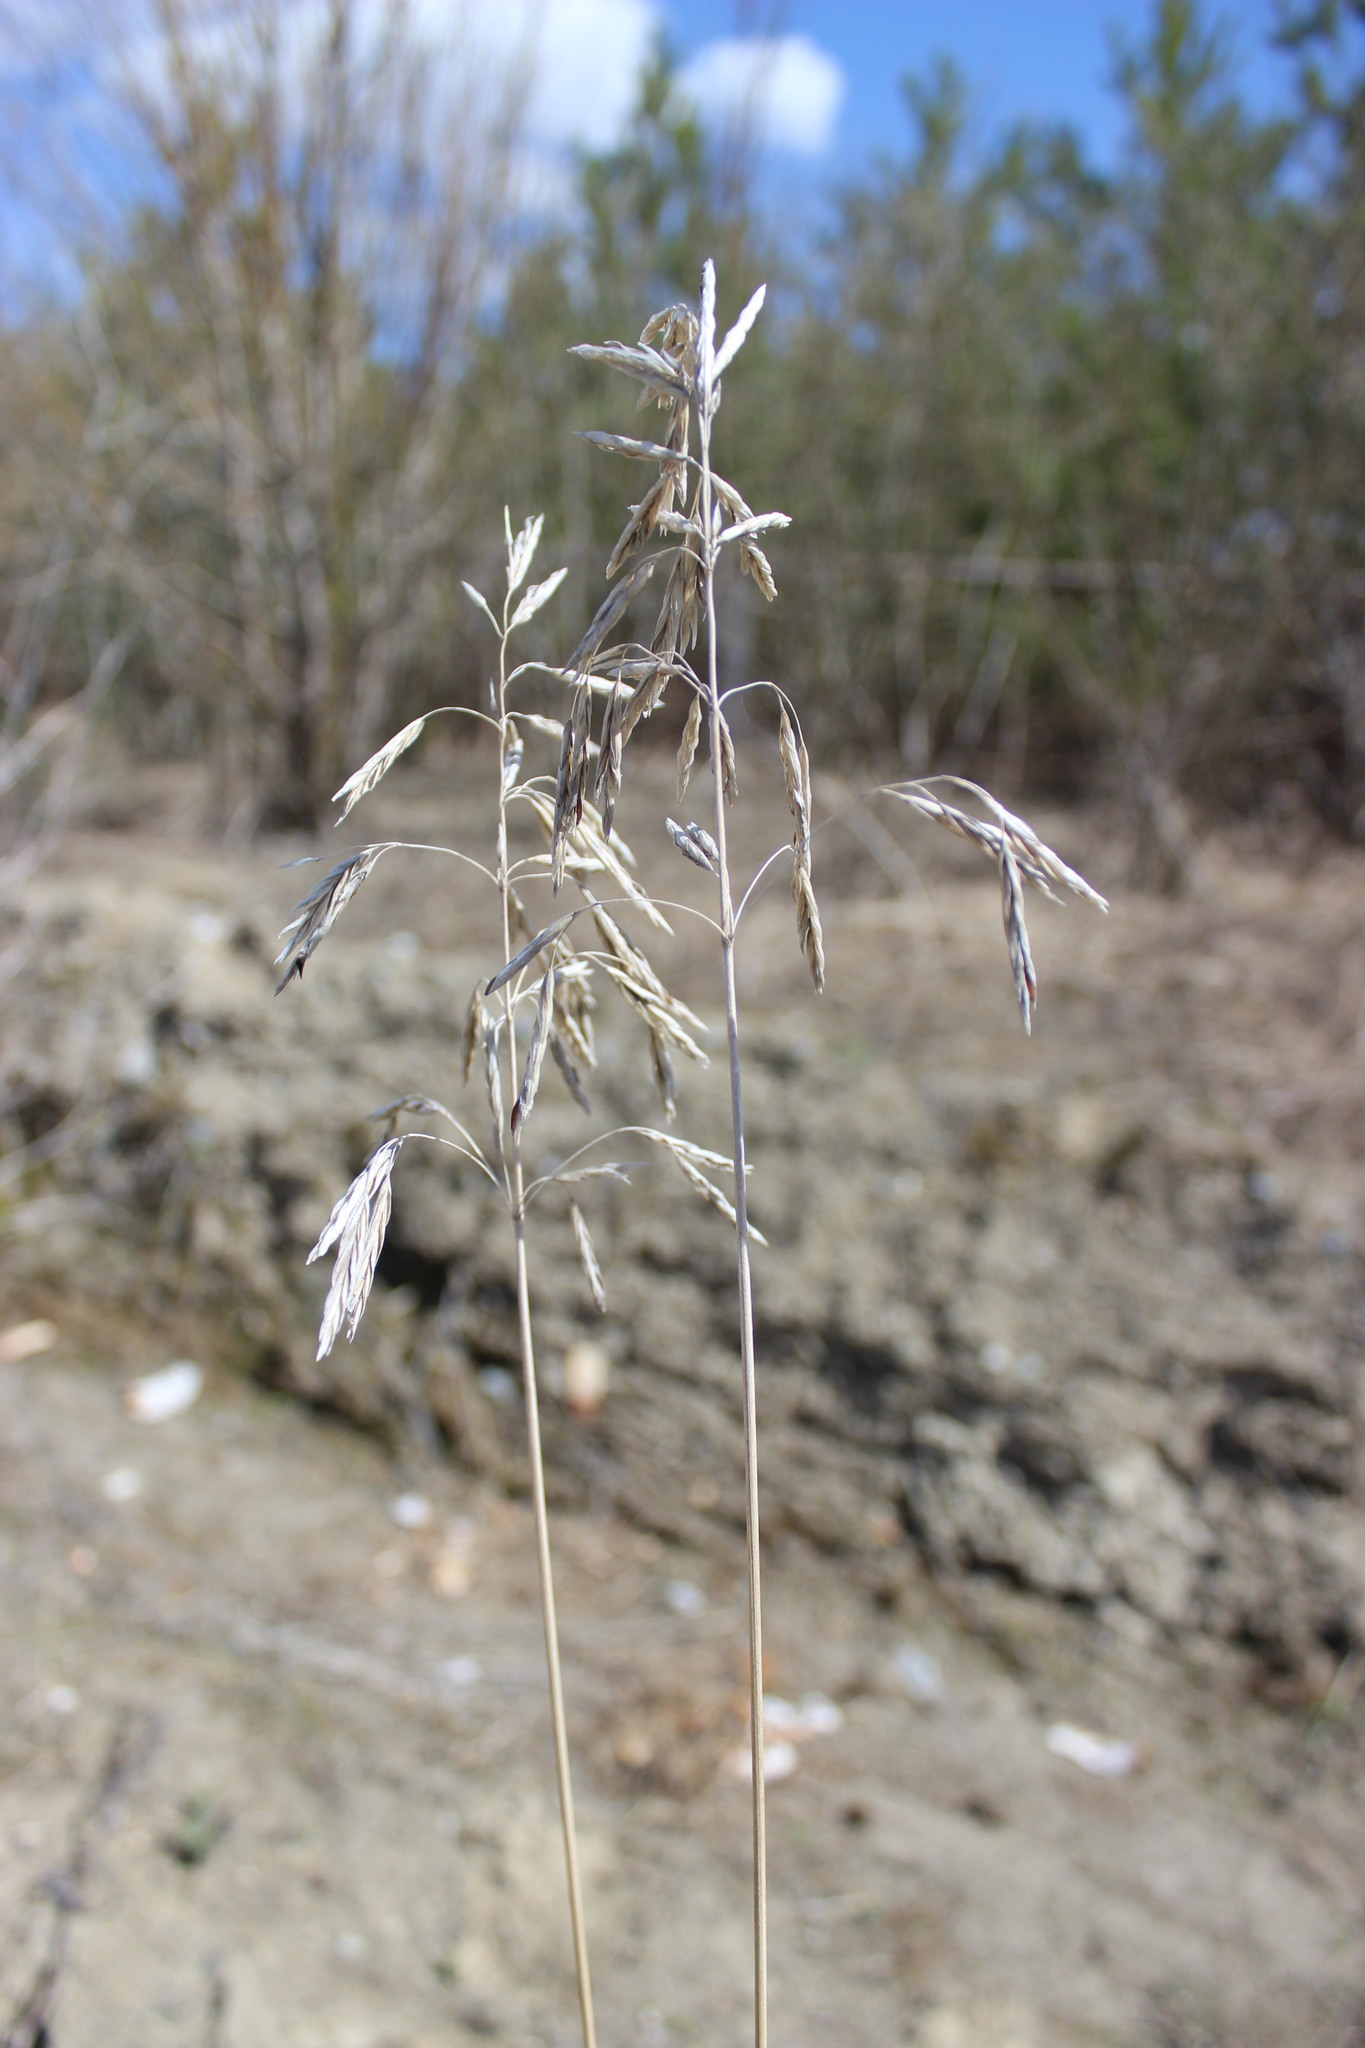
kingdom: Plantae
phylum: Tracheophyta
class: Liliopsida
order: Poales
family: Poaceae
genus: Bromus
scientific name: Bromus inermis
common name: Smooth brome
